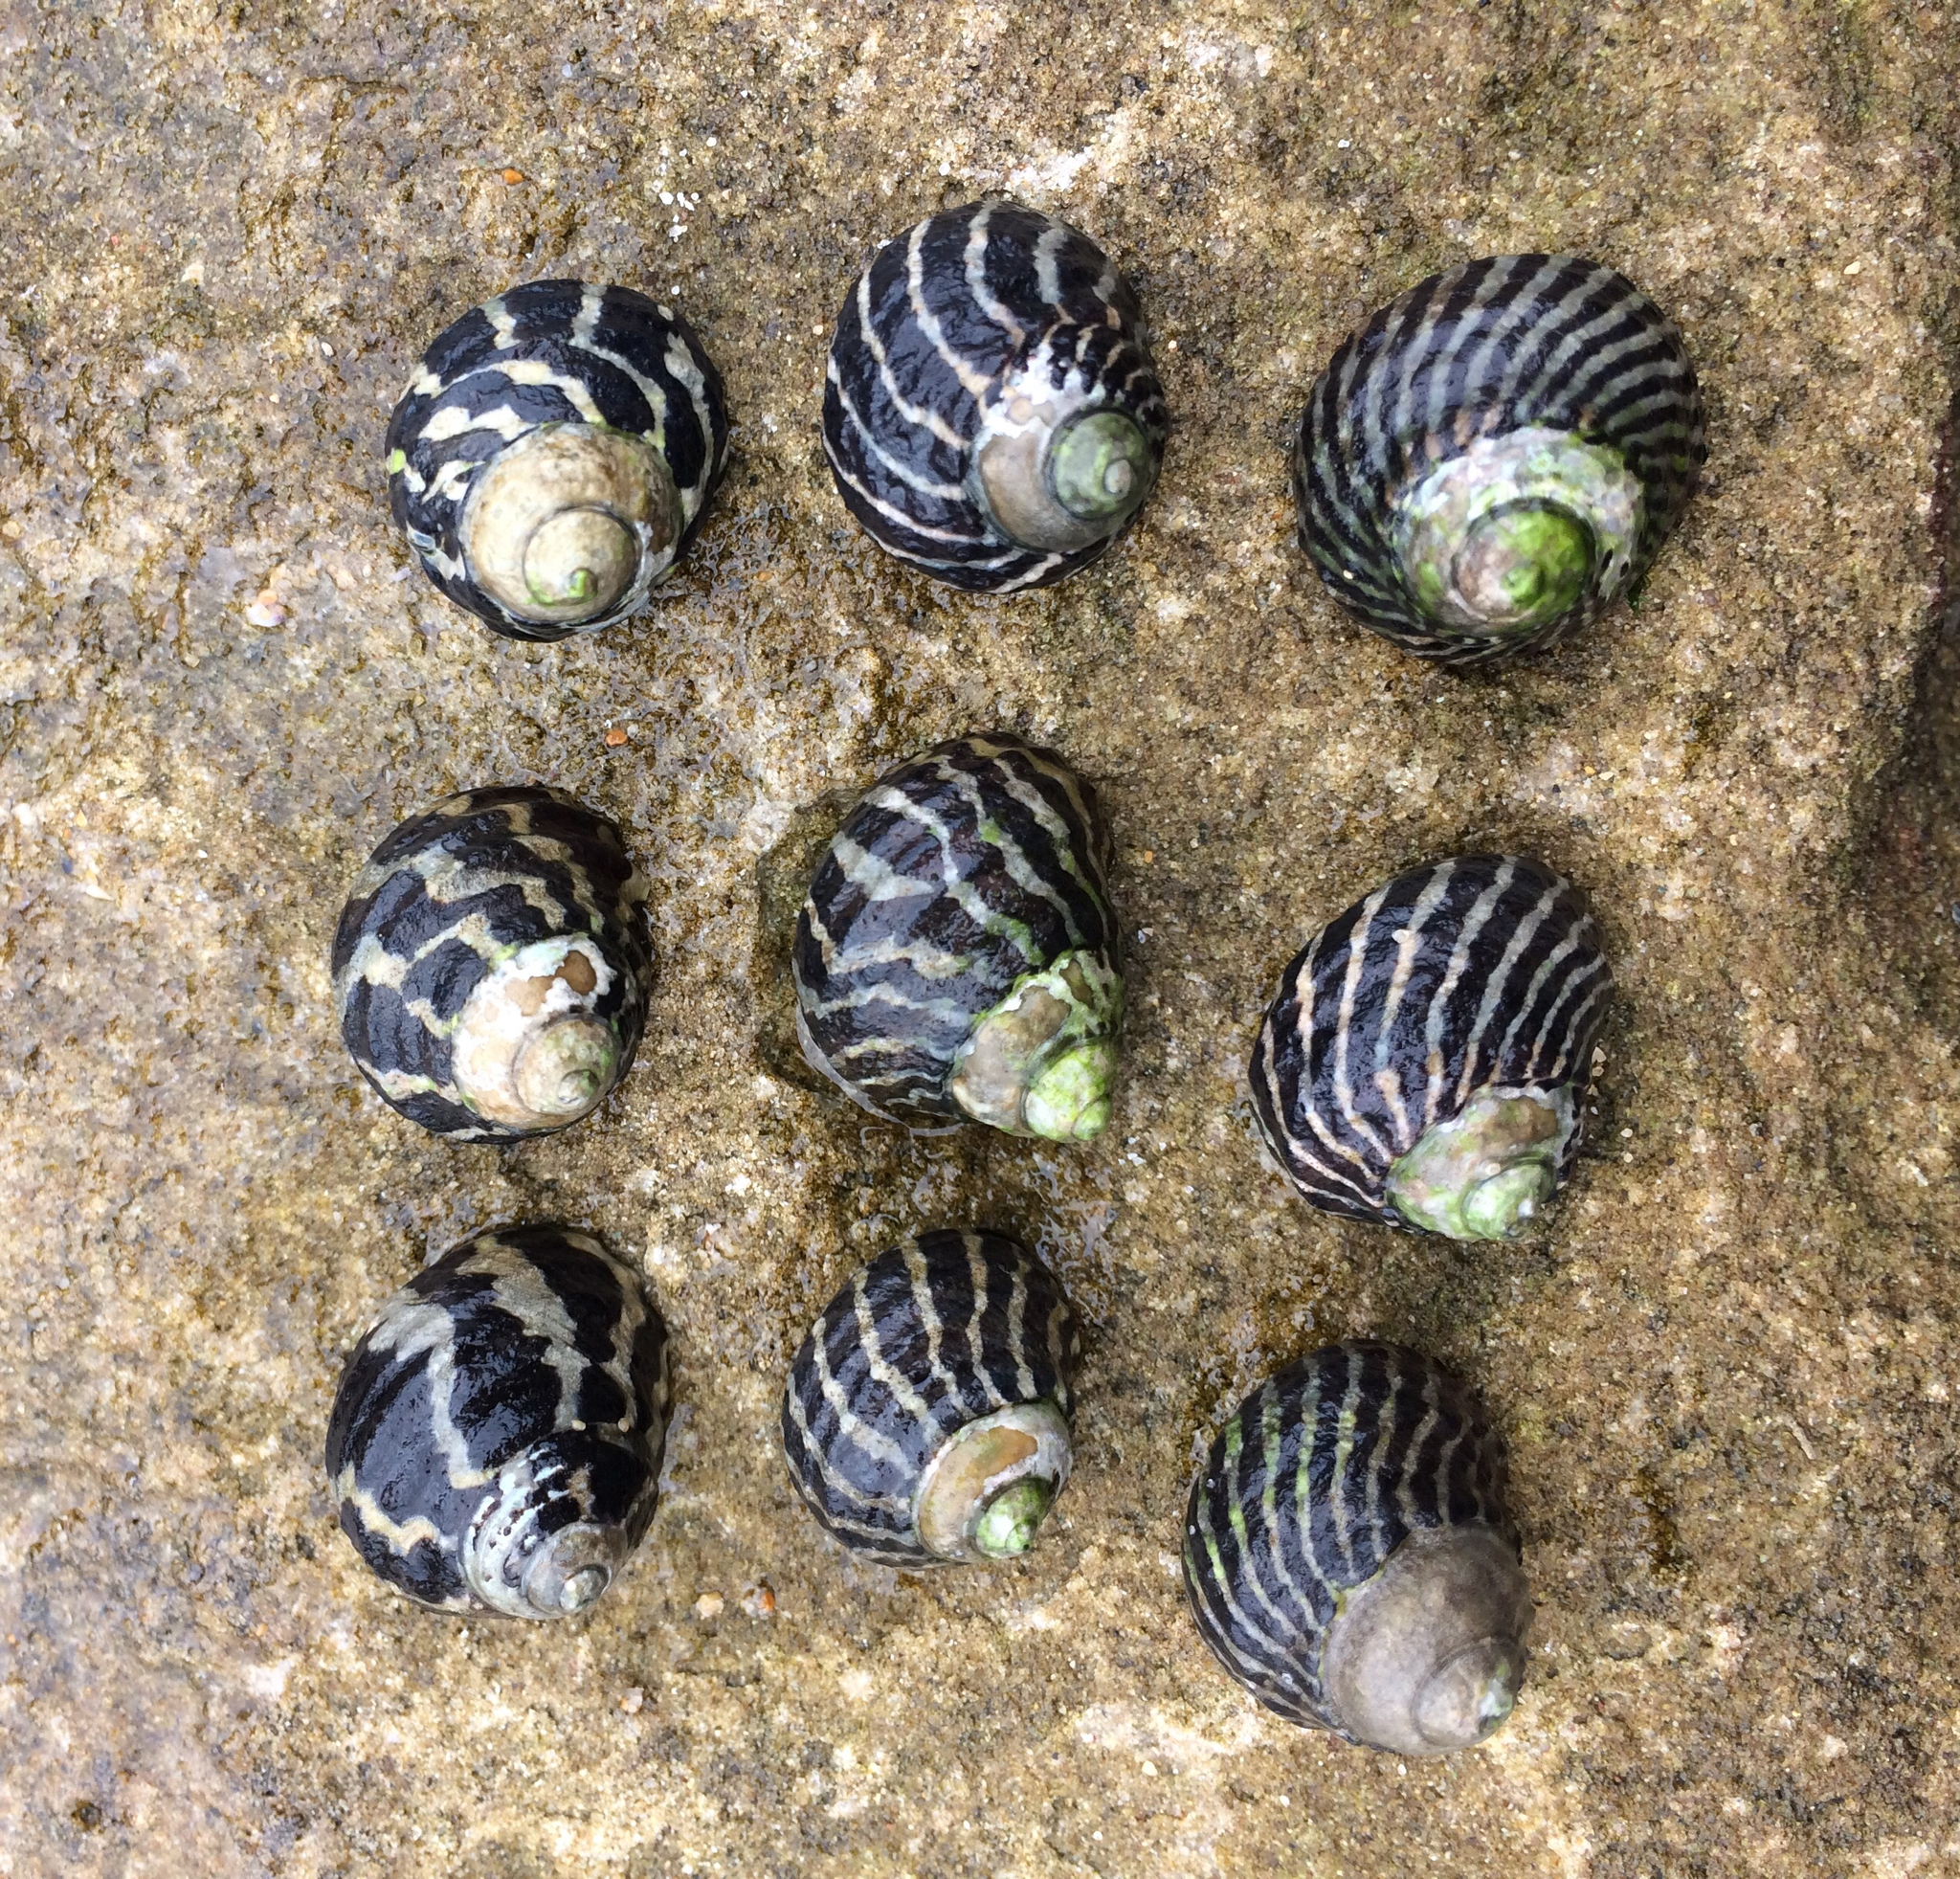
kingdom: Animalia
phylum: Mollusca
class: Gastropoda
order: Trochida
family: Trochidae
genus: Austrocochlea
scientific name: Austrocochlea porcata
